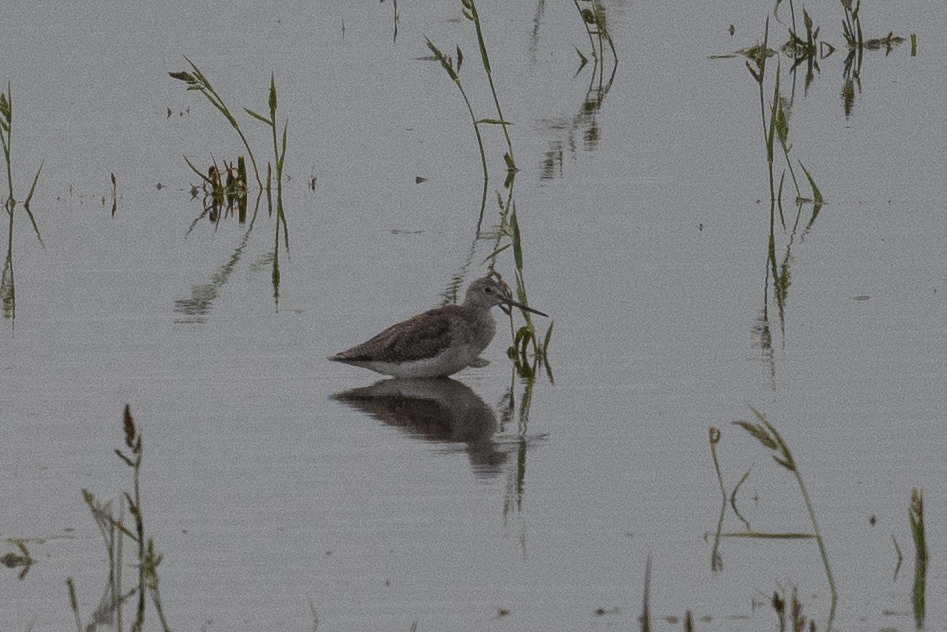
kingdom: Animalia
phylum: Chordata
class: Aves
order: Charadriiformes
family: Scolopacidae
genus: Tringa
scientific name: Tringa melanoleuca
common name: Greater yellowlegs
